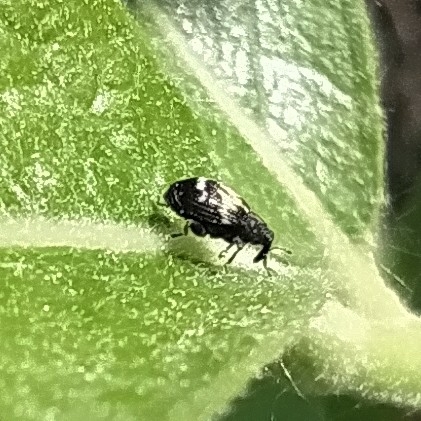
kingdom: Animalia
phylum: Arthropoda
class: Insecta
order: Coleoptera
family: Curculionidae
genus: Tachyerges
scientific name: Tachyerges salicis
